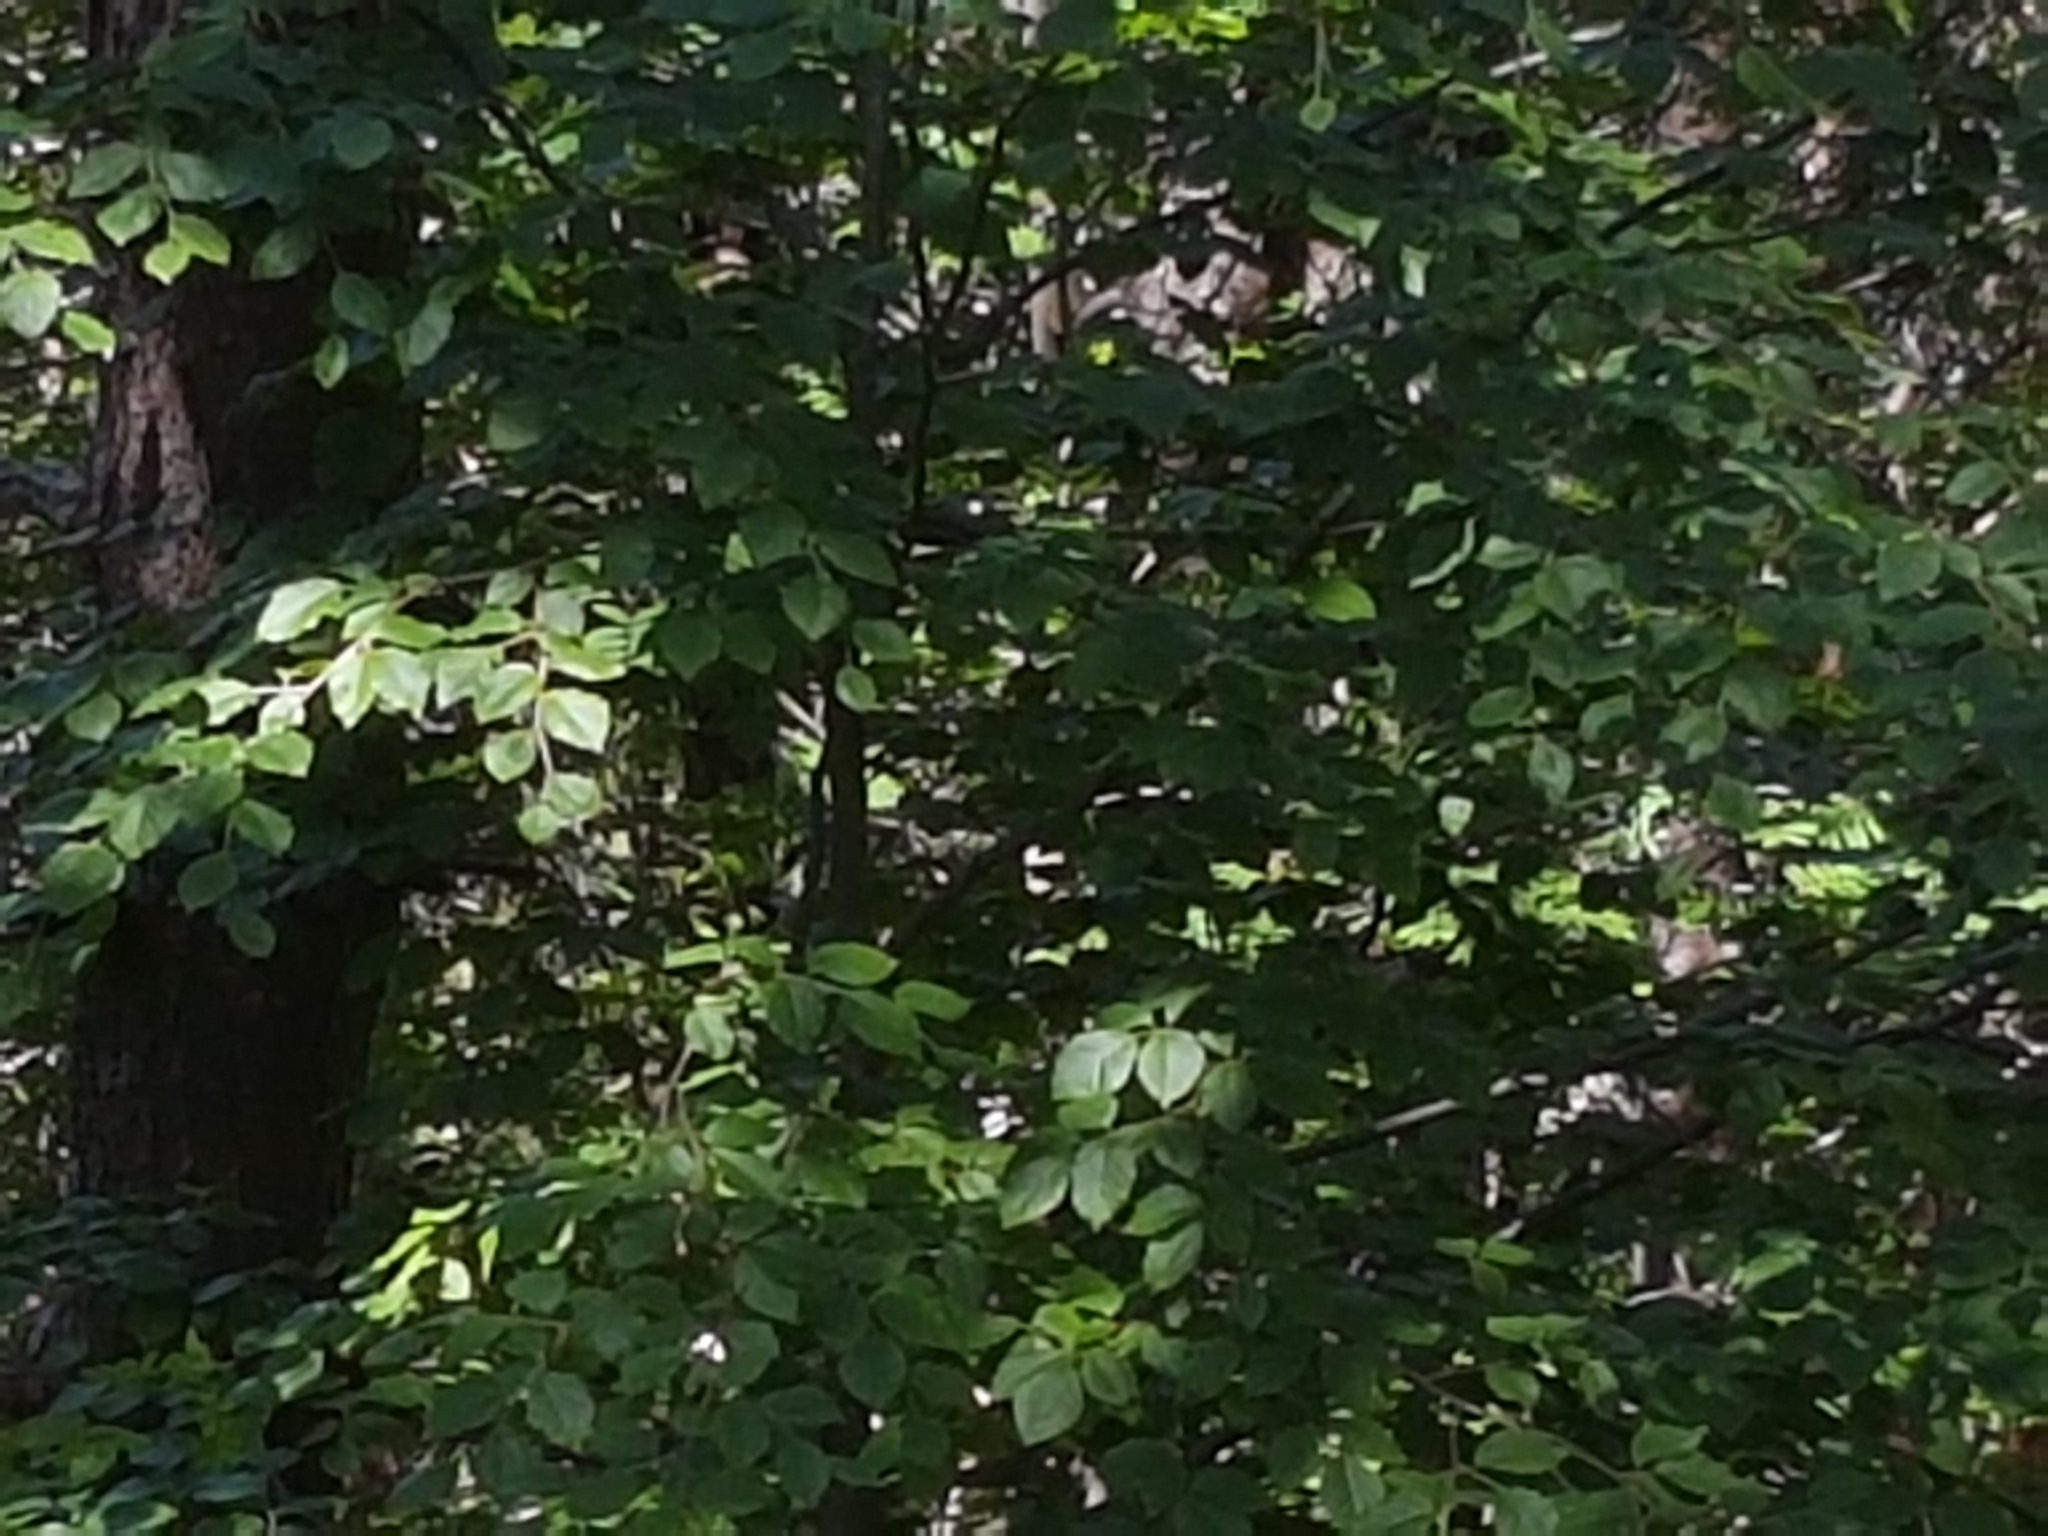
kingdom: Plantae
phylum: Tracheophyta
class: Magnoliopsida
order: Fagales
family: Fagaceae
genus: Fagus
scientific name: Fagus sylvatica
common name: Beech
